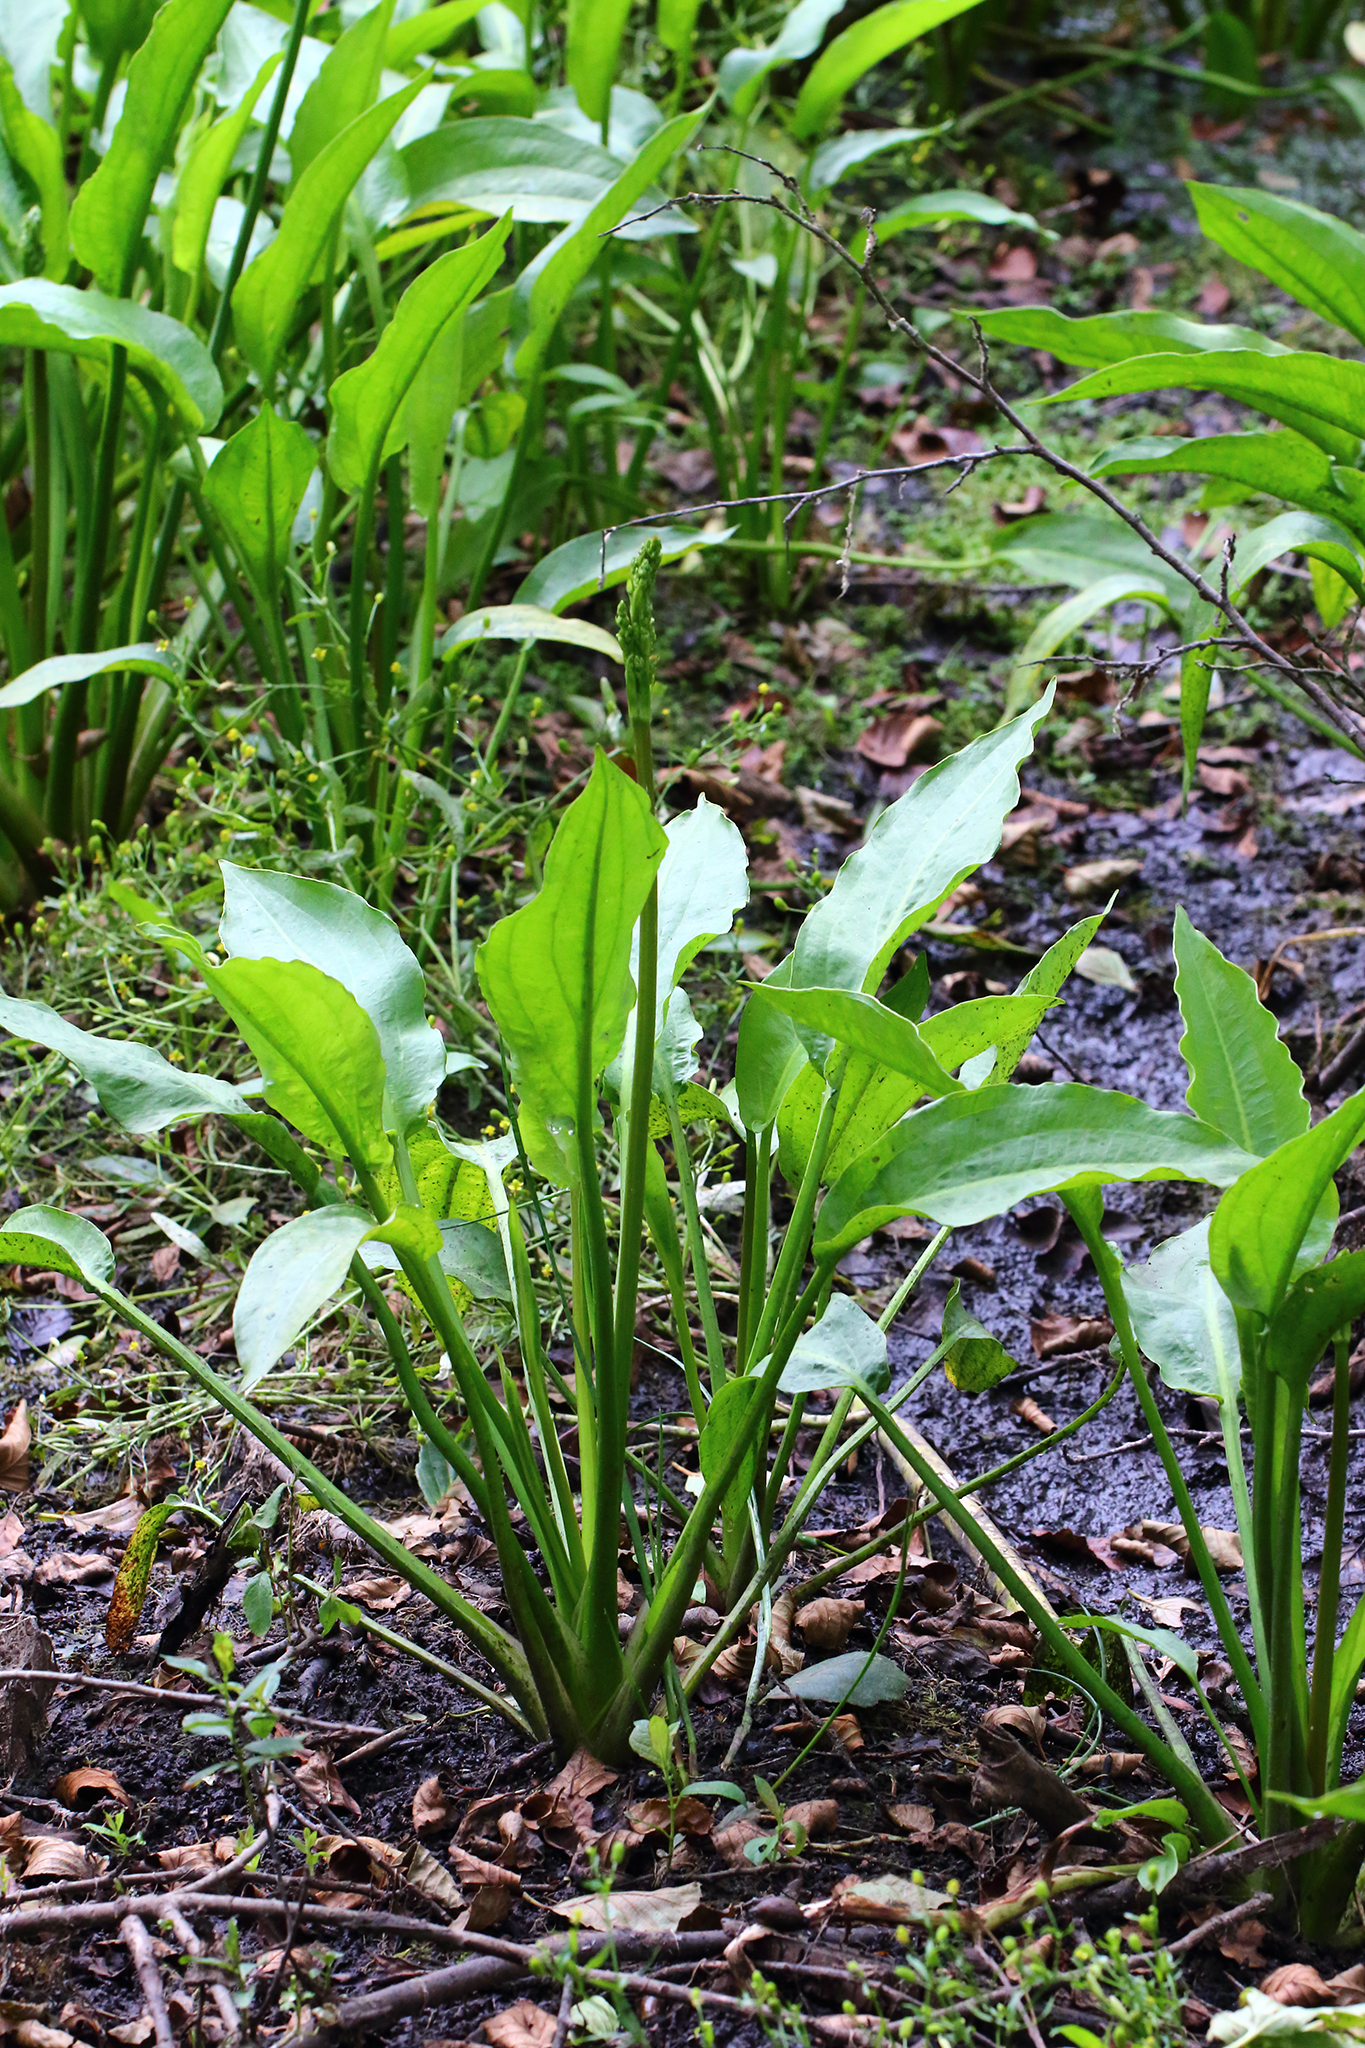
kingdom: Plantae
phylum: Tracheophyta
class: Liliopsida
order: Alismatales
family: Alismataceae
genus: Alisma
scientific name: Alisma plantago-aquatica
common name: Water-plantain
